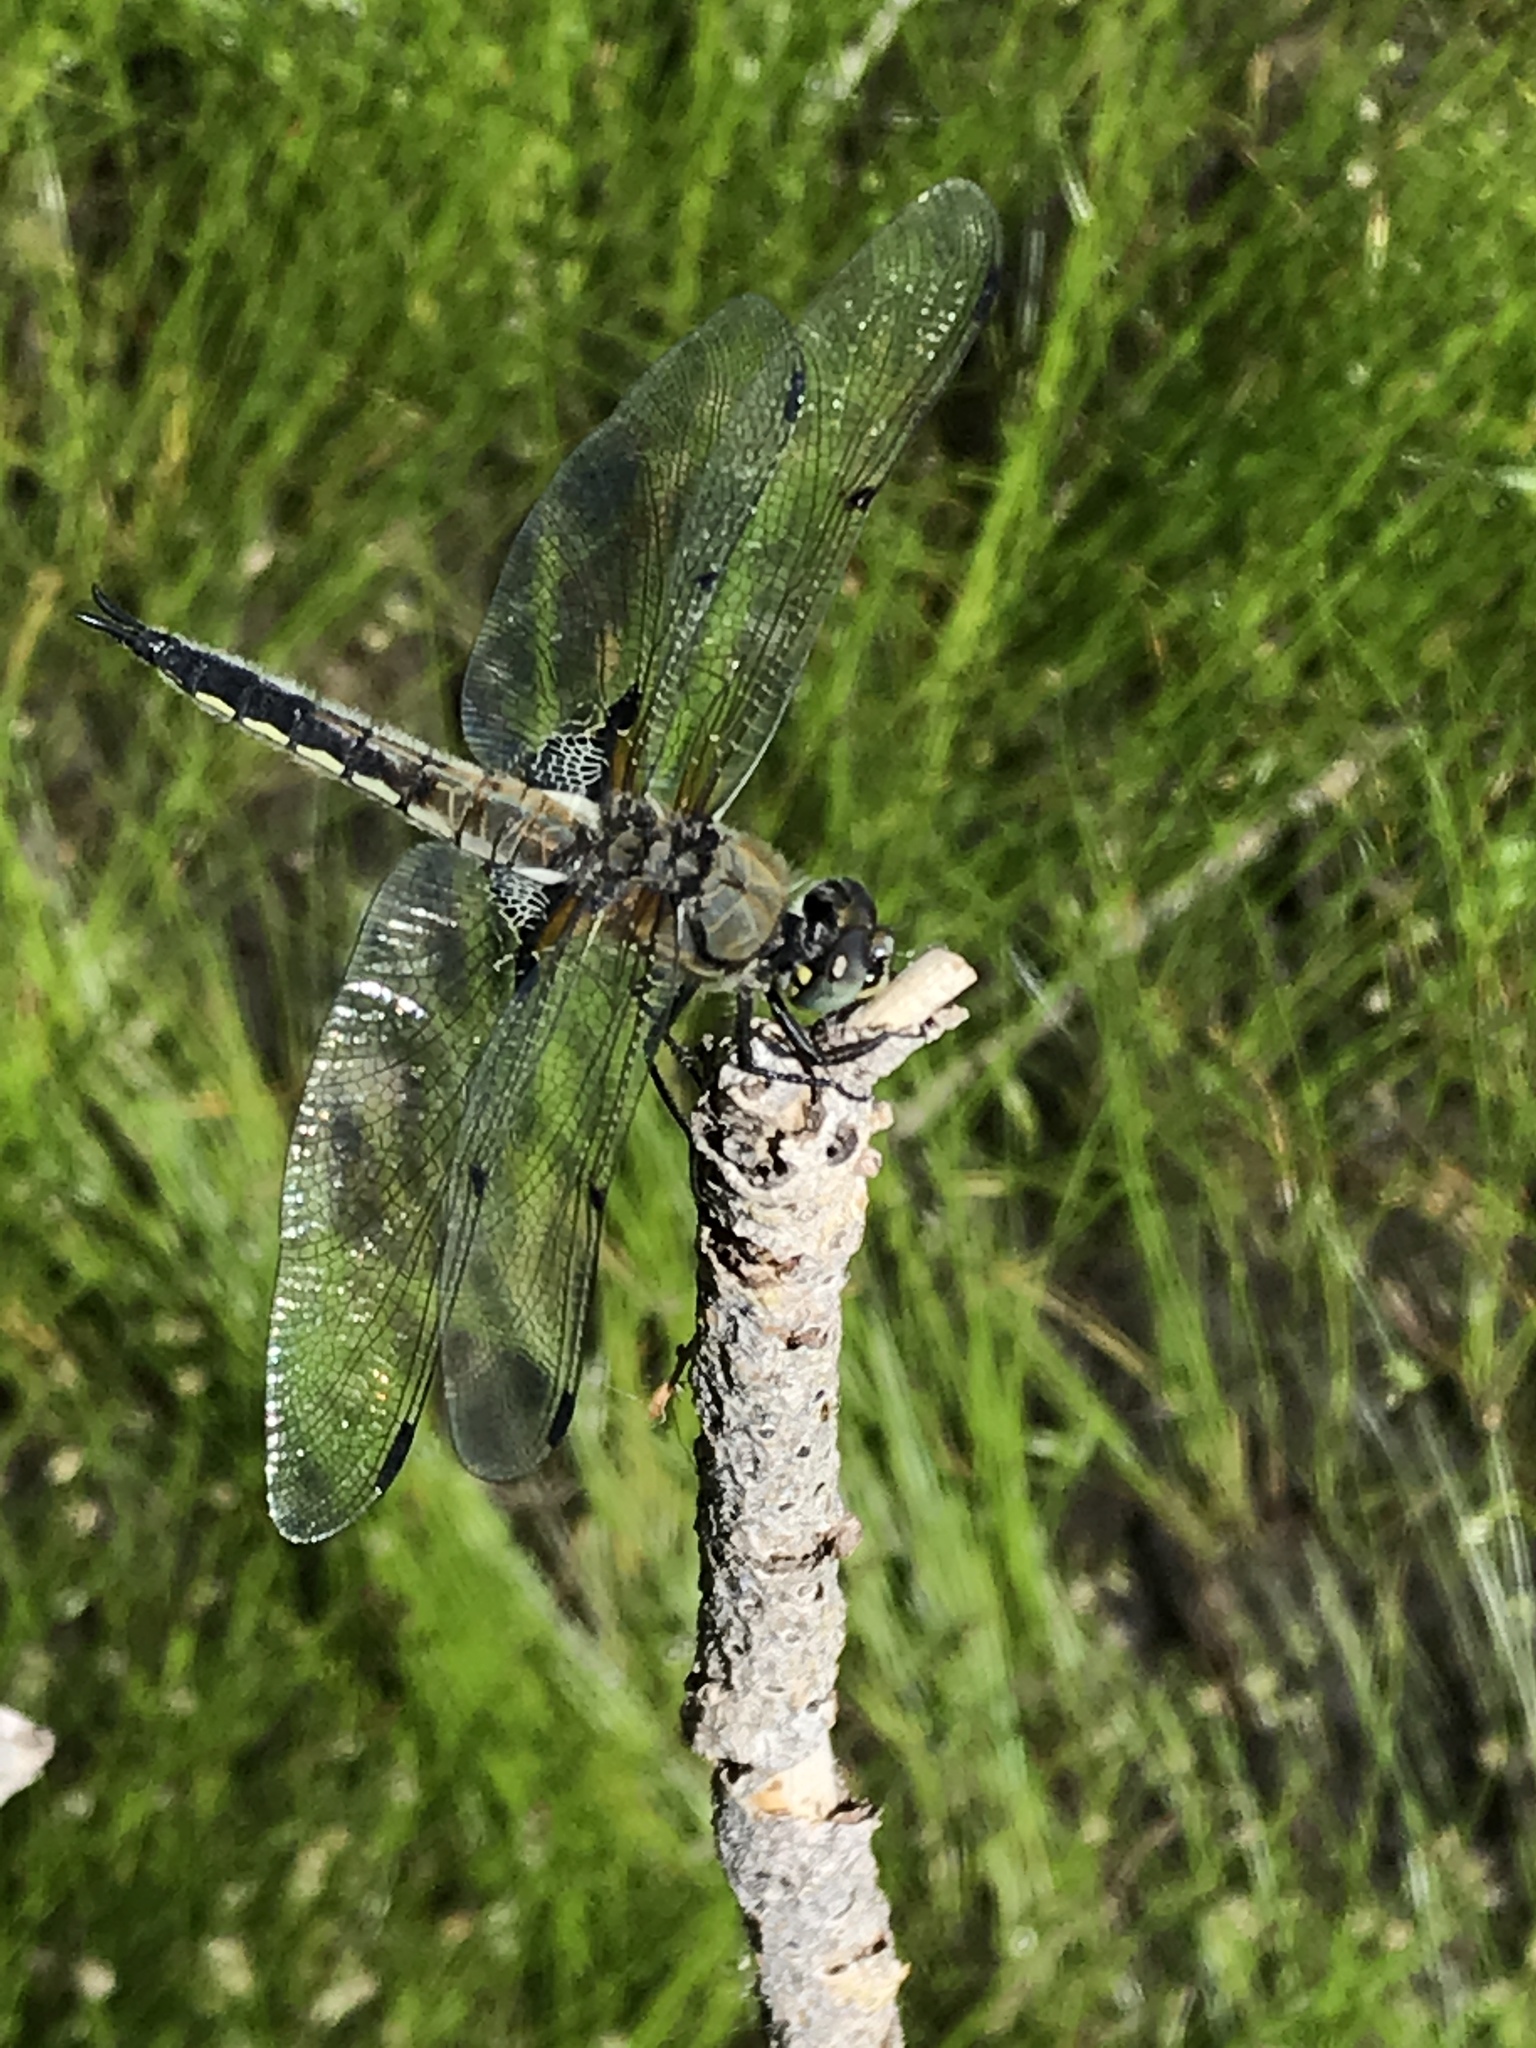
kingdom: Animalia
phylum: Arthropoda
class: Insecta
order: Odonata
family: Libellulidae
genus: Libellula
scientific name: Libellula quadrimaculata
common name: Four-spotted chaser
